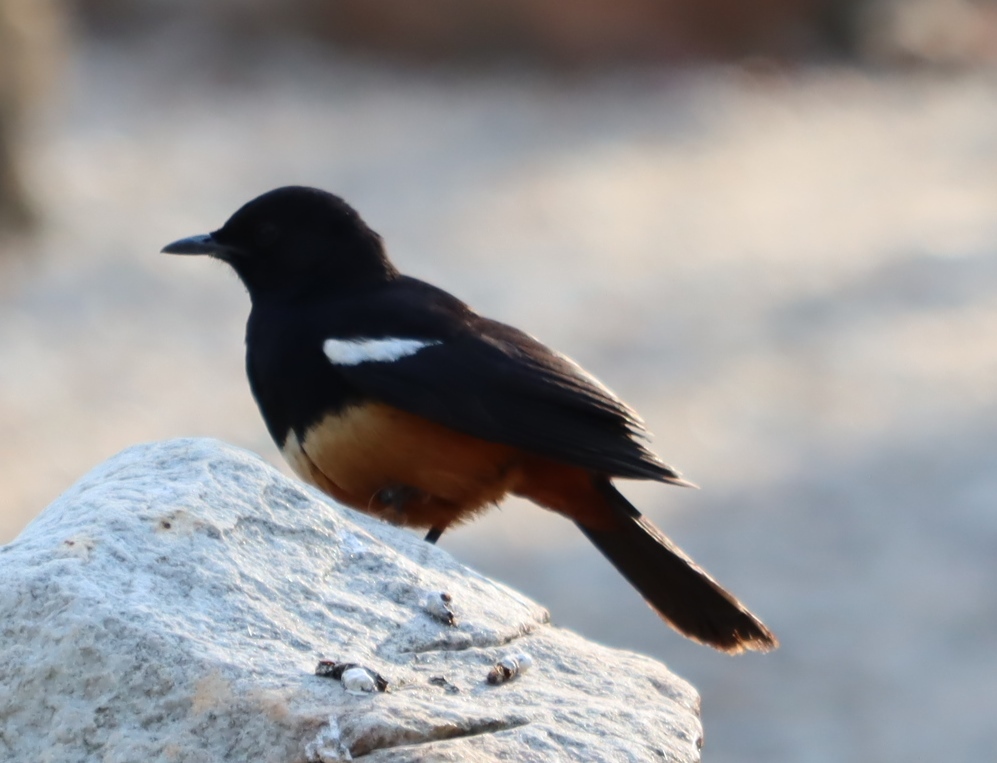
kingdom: Animalia
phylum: Chordata
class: Aves
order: Passeriformes
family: Muscicapidae
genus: Thamnolaea
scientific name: Thamnolaea cinnamomeiventris
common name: Mocking cliff chat
